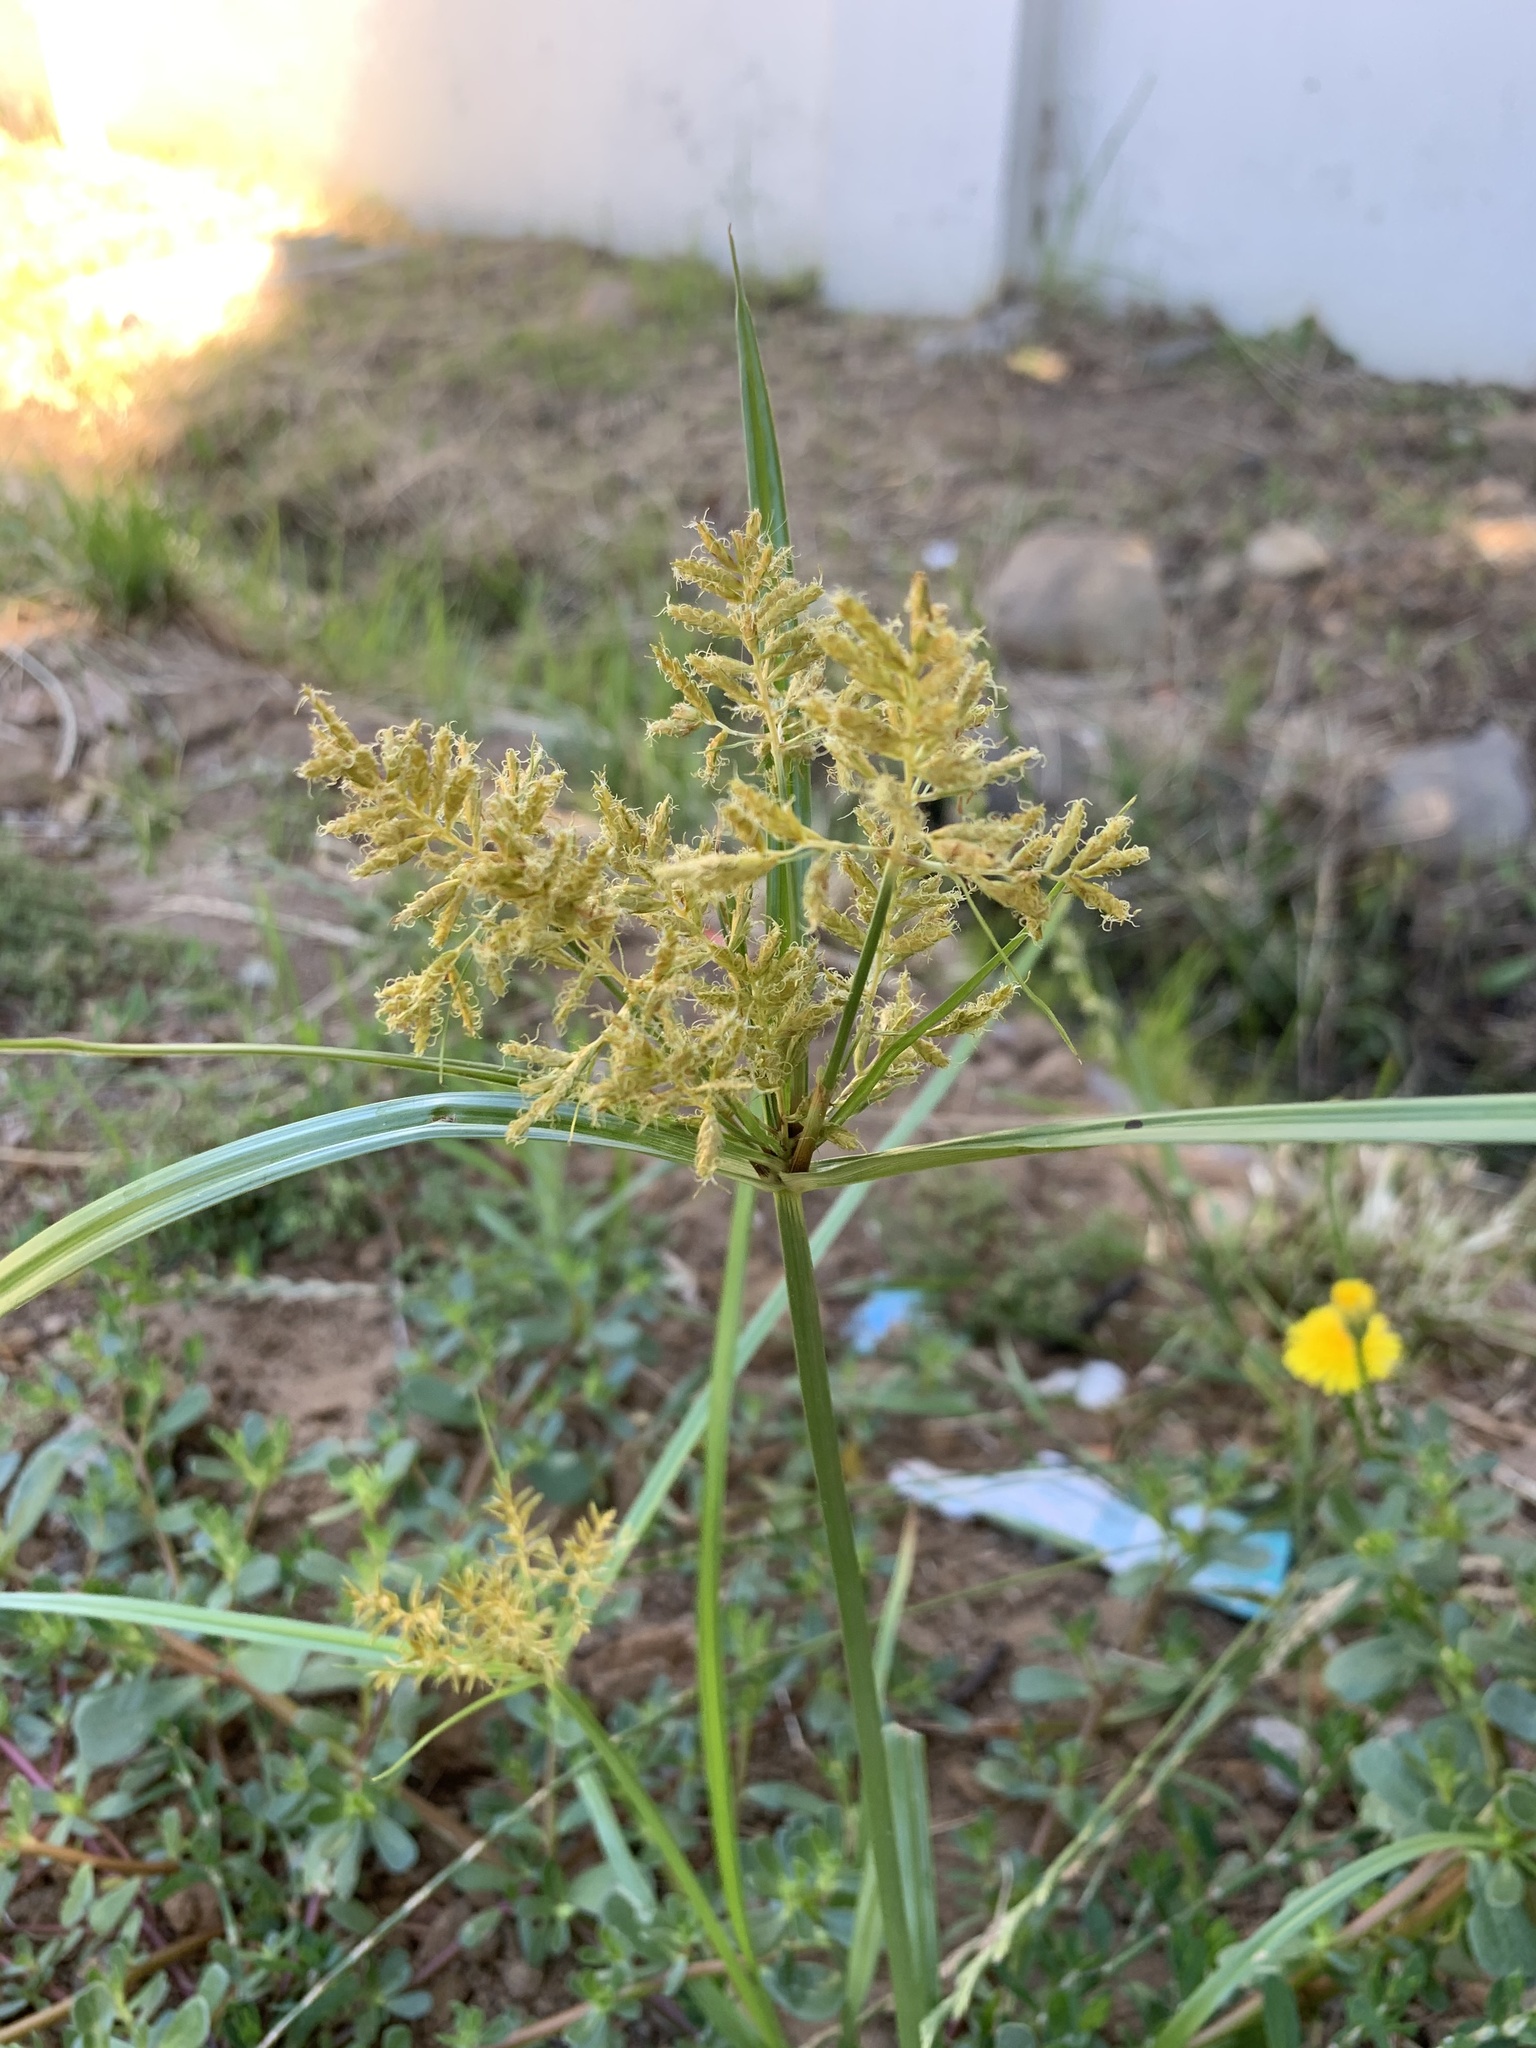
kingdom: Plantae
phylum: Tracheophyta
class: Liliopsida
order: Poales
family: Cyperaceae
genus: Cyperus
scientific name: Cyperus esculentus
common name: Yellow nutsedge
